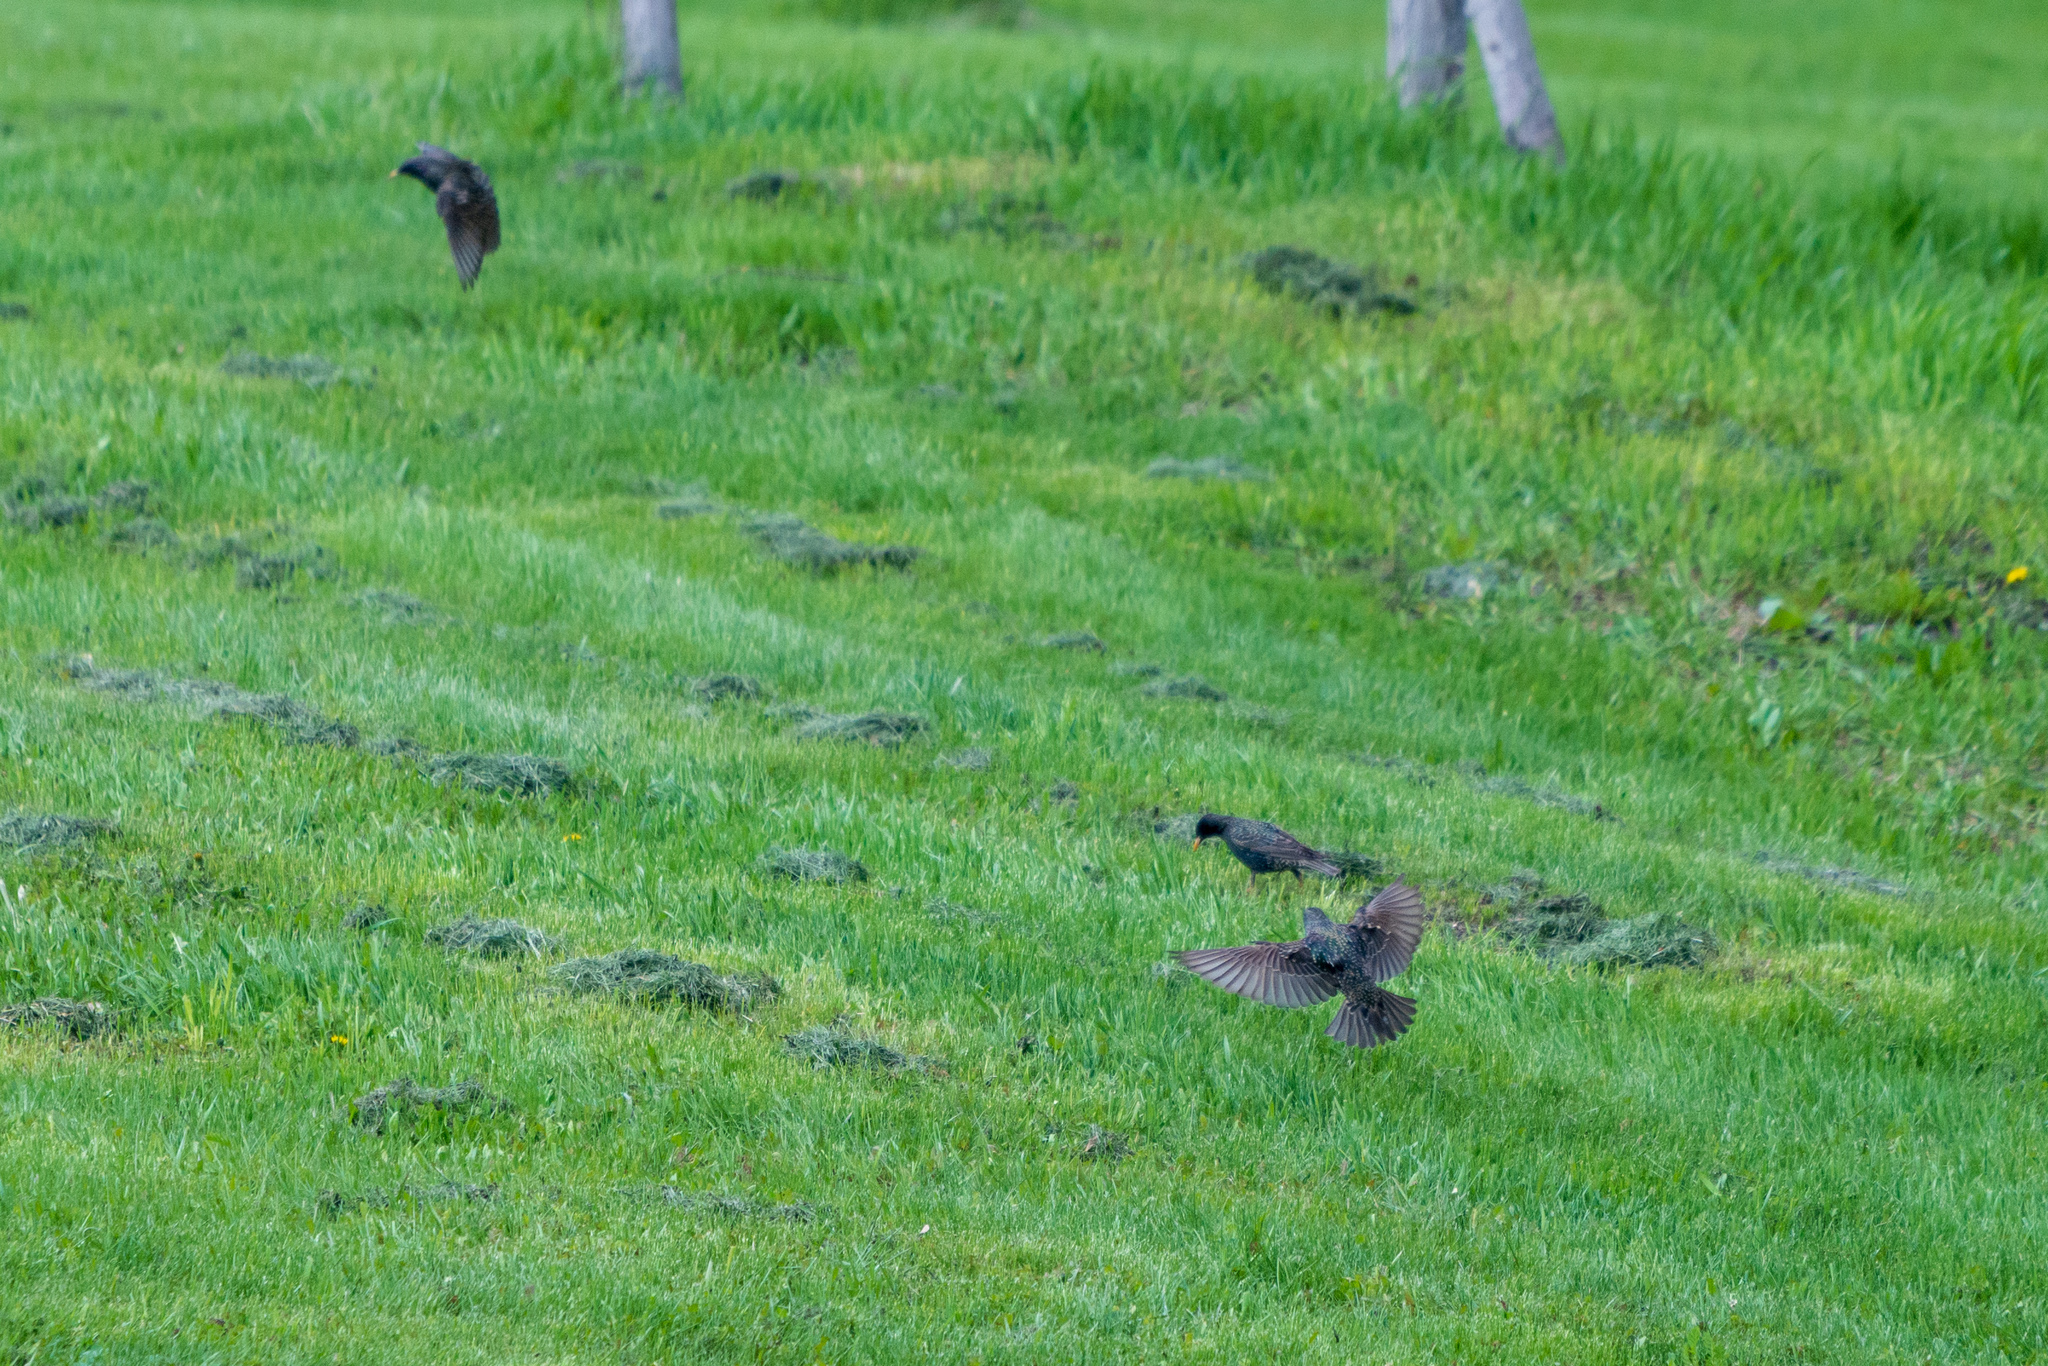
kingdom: Animalia
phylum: Chordata
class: Aves
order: Passeriformes
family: Sturnidae
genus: Sturnus
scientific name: Sturnus vulgaris
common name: Common starling
